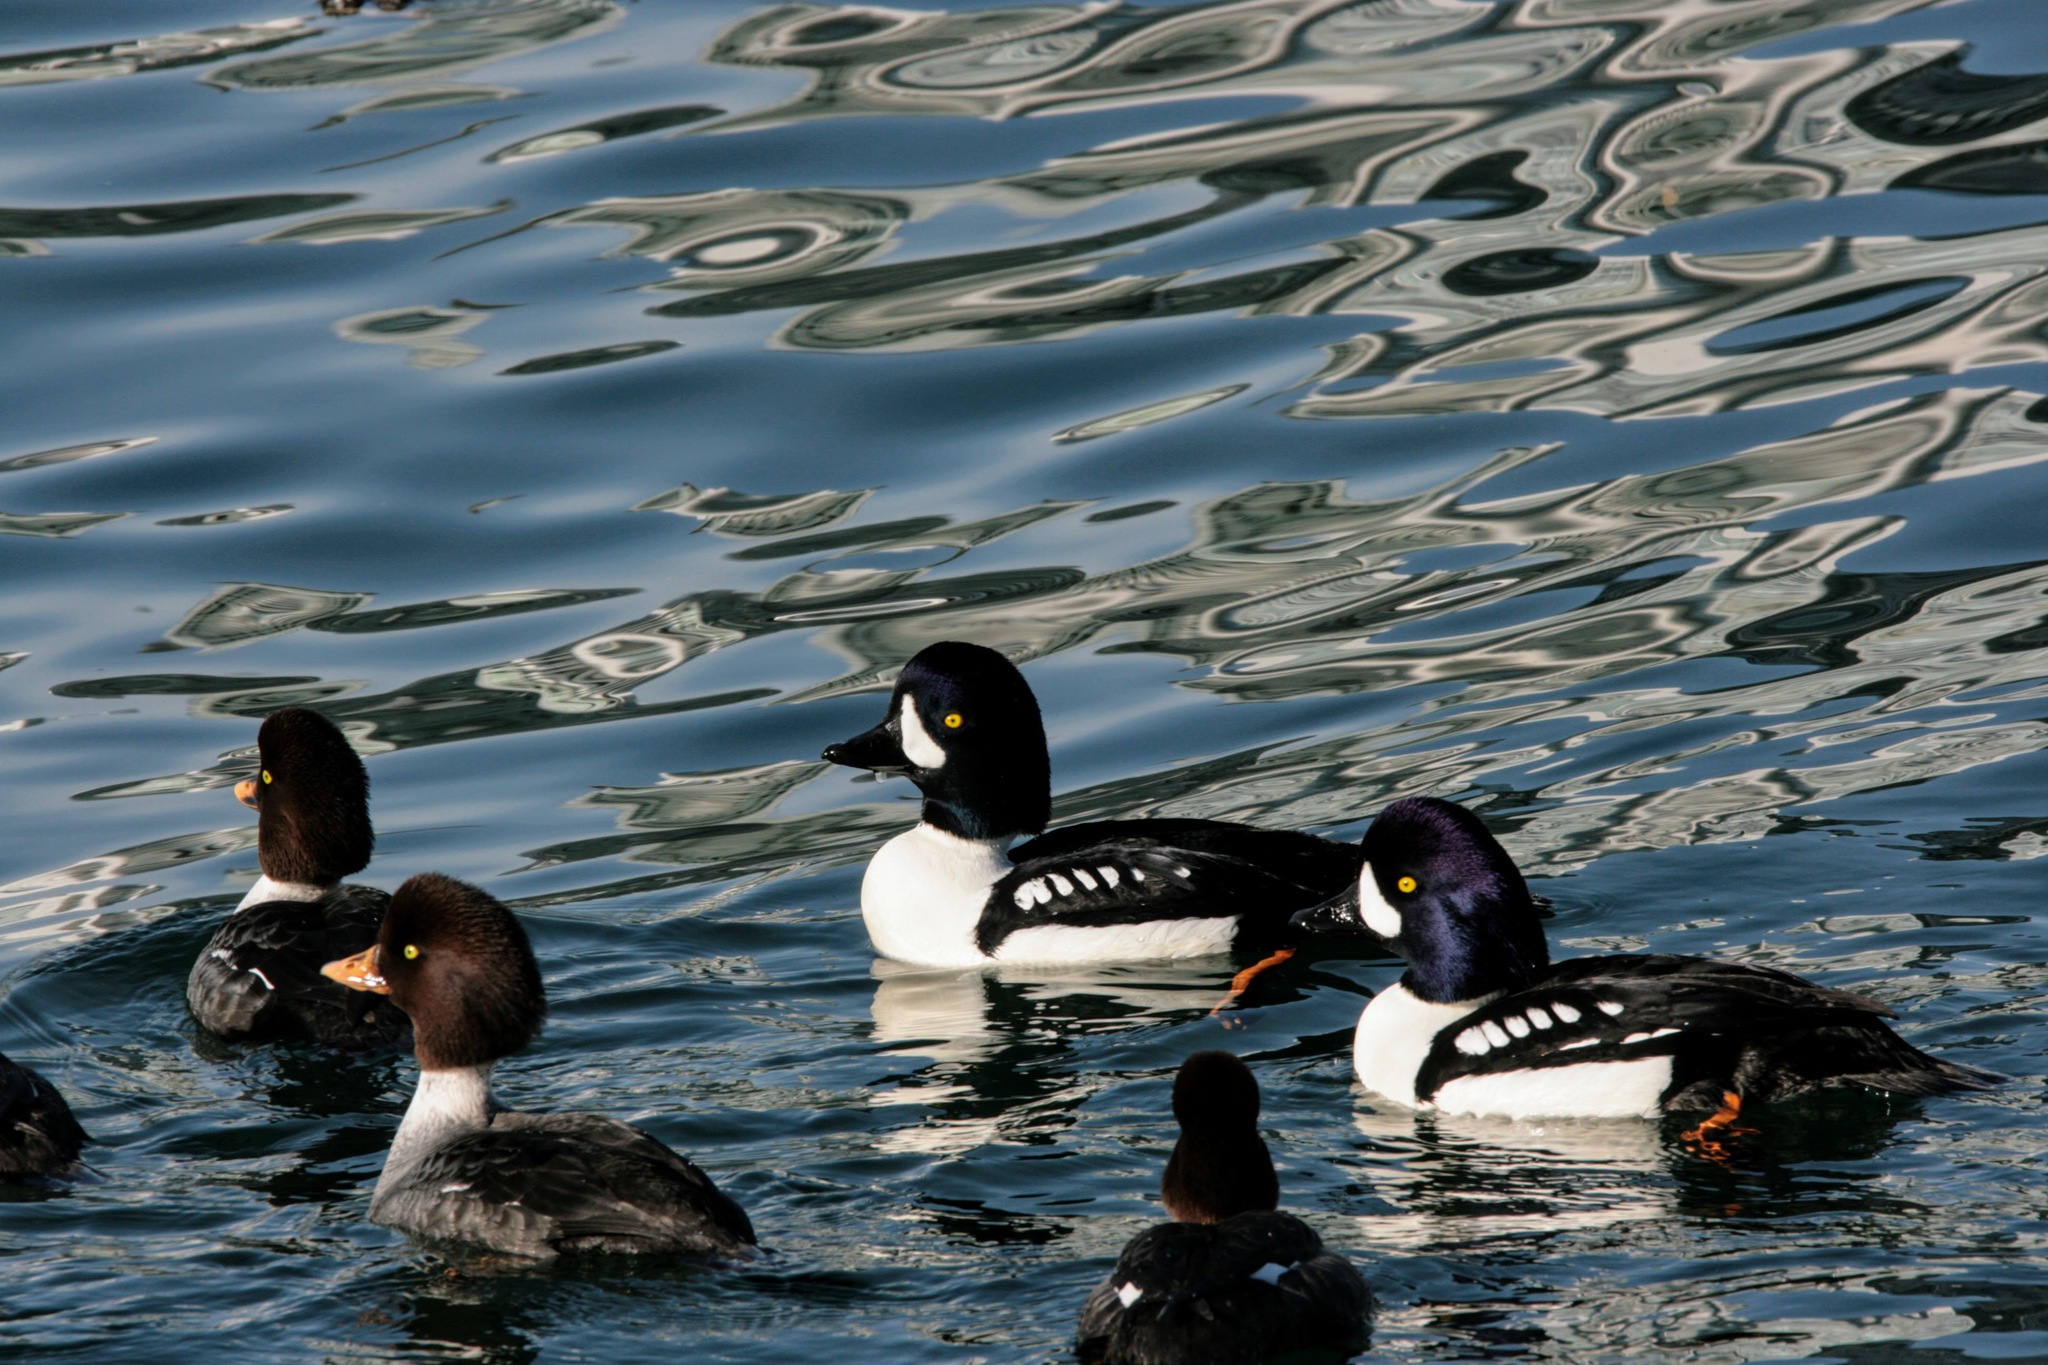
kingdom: Animalia
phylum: Chordata
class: Aves
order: Anseriformes
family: Anatidae
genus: Bucephala
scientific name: Bucephala islandica
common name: Barrow's goldeneye
